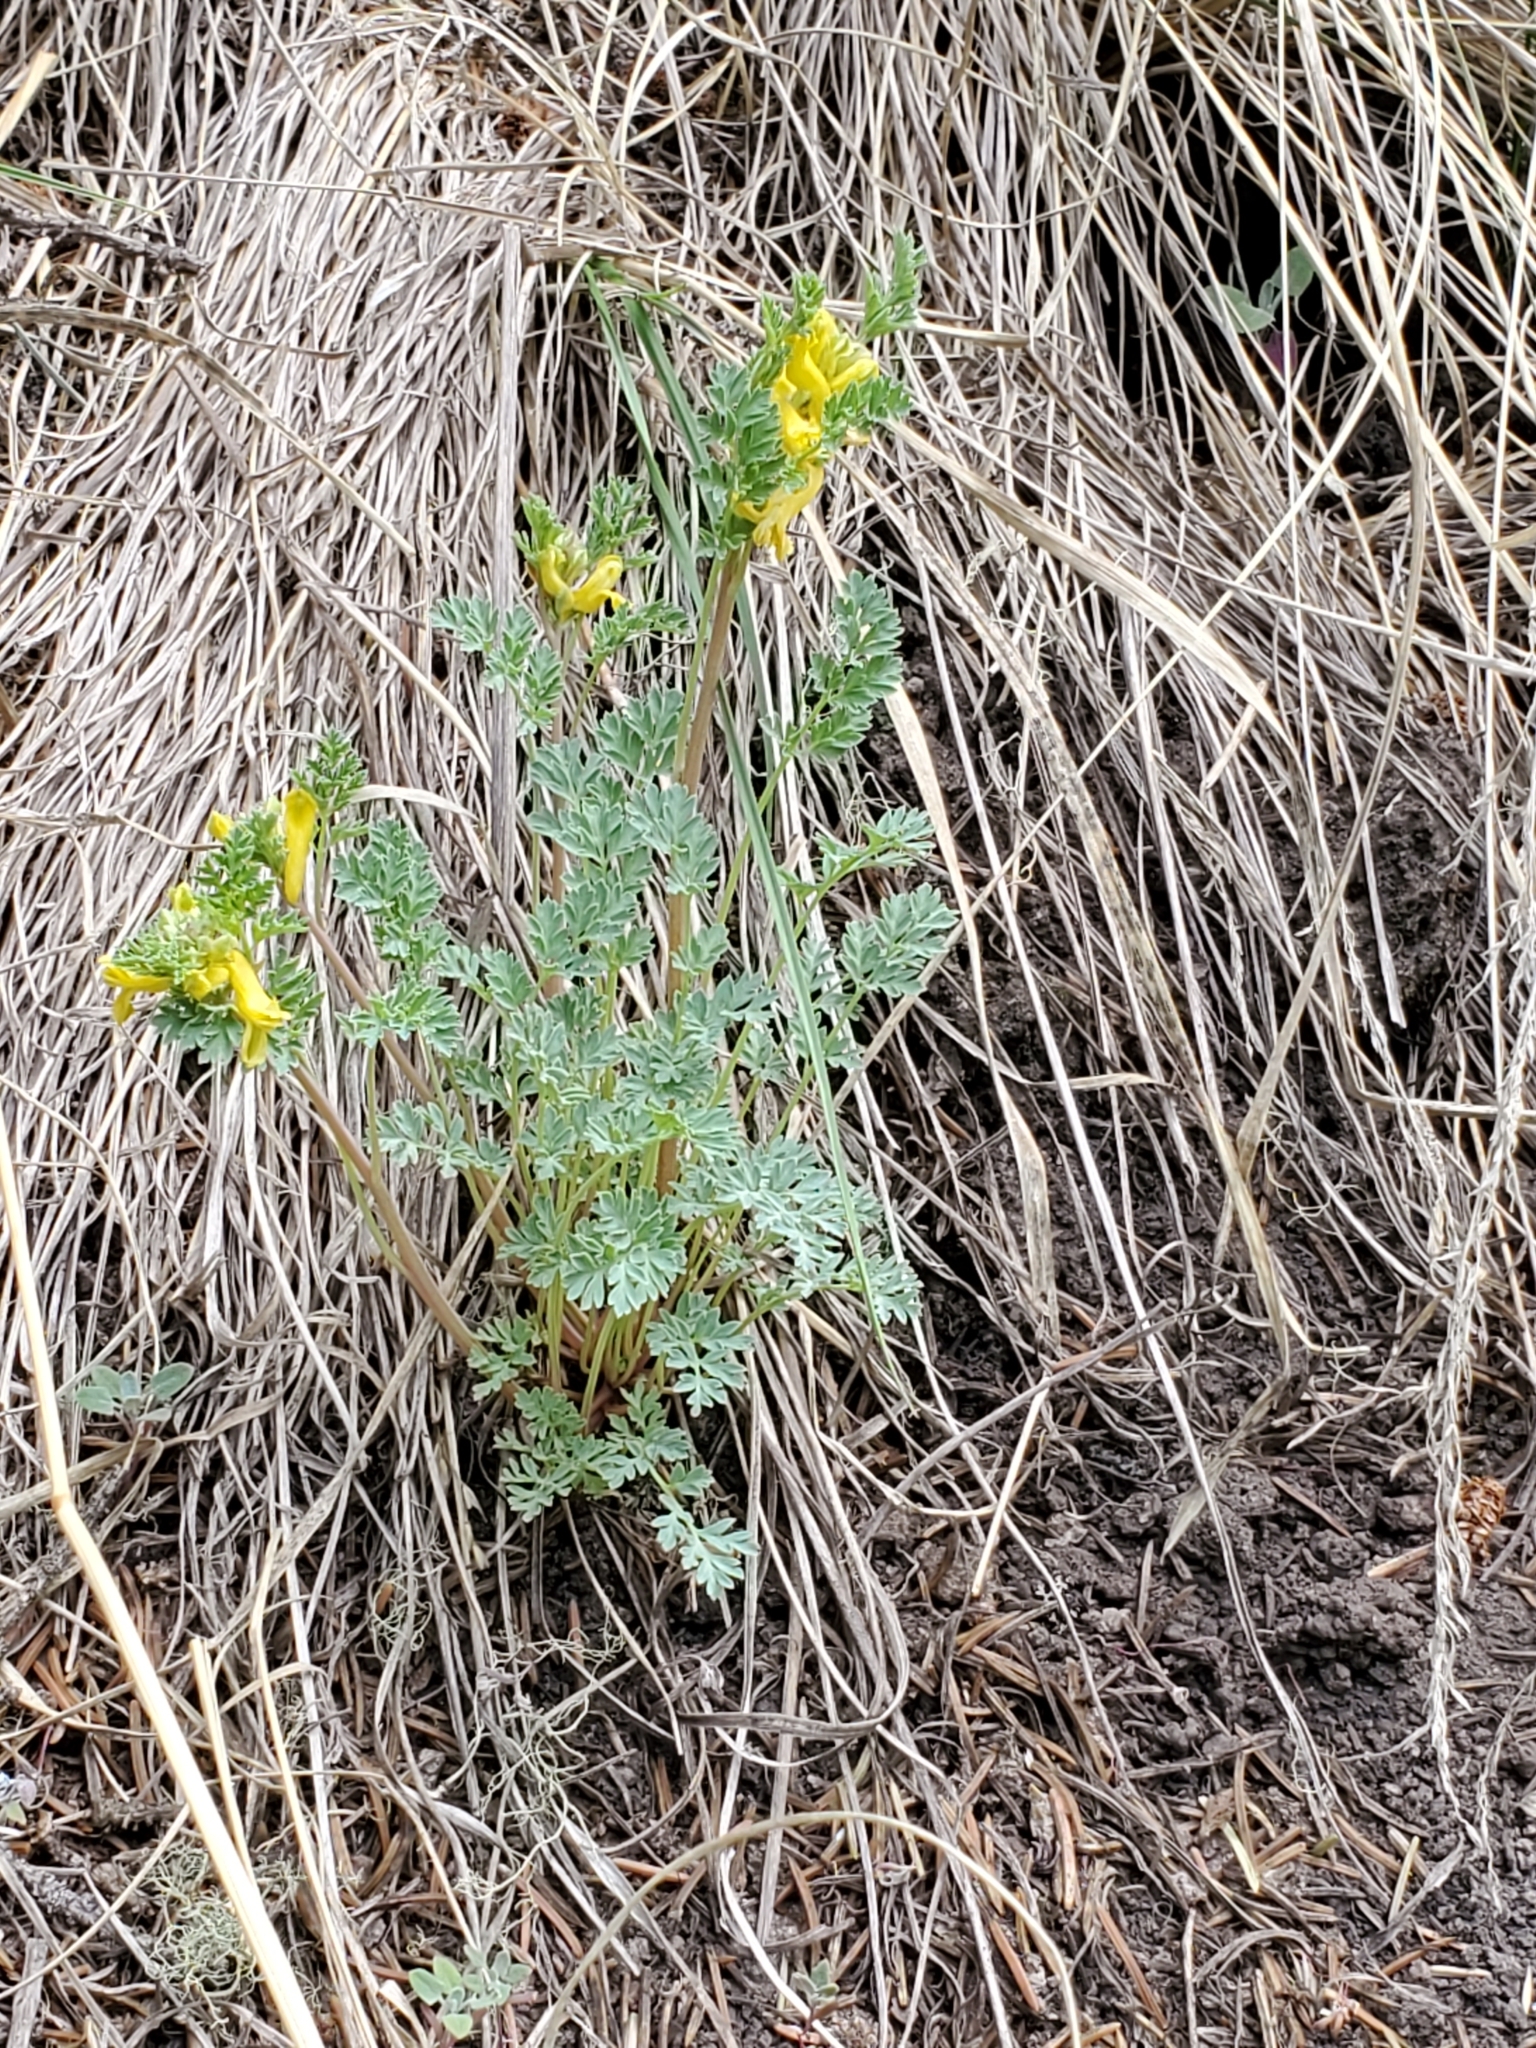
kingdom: Plantae
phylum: Tracheophyta
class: Magnoliopsida
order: Ranunculales
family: Papaveraceae
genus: Corydalis
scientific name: Corydalis aurea
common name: Golden corydalis
